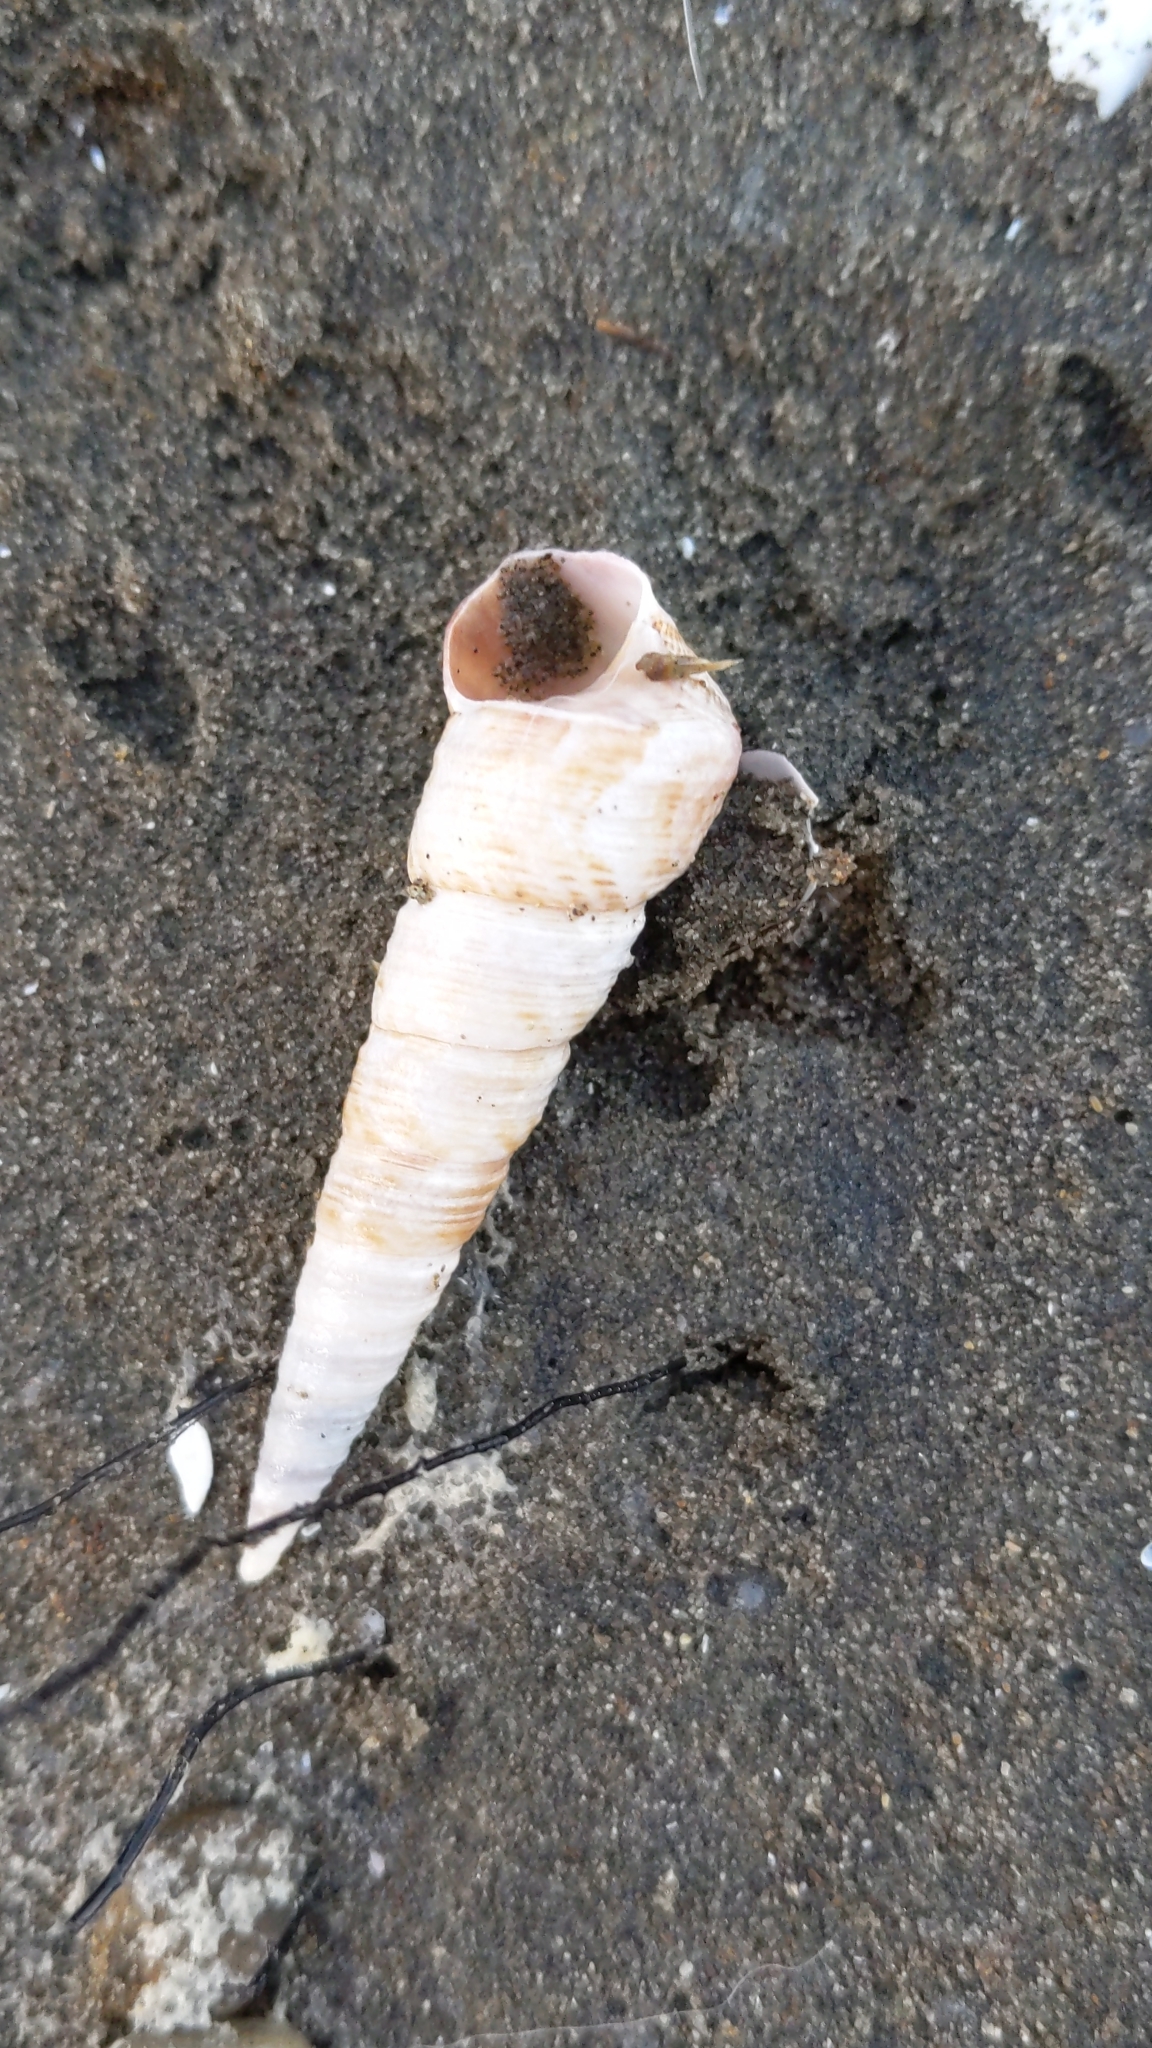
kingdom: Animalia
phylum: Mollusca
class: Gastropoda
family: Turritellidae
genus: Maoricolpus
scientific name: Maoricolpus roseus
